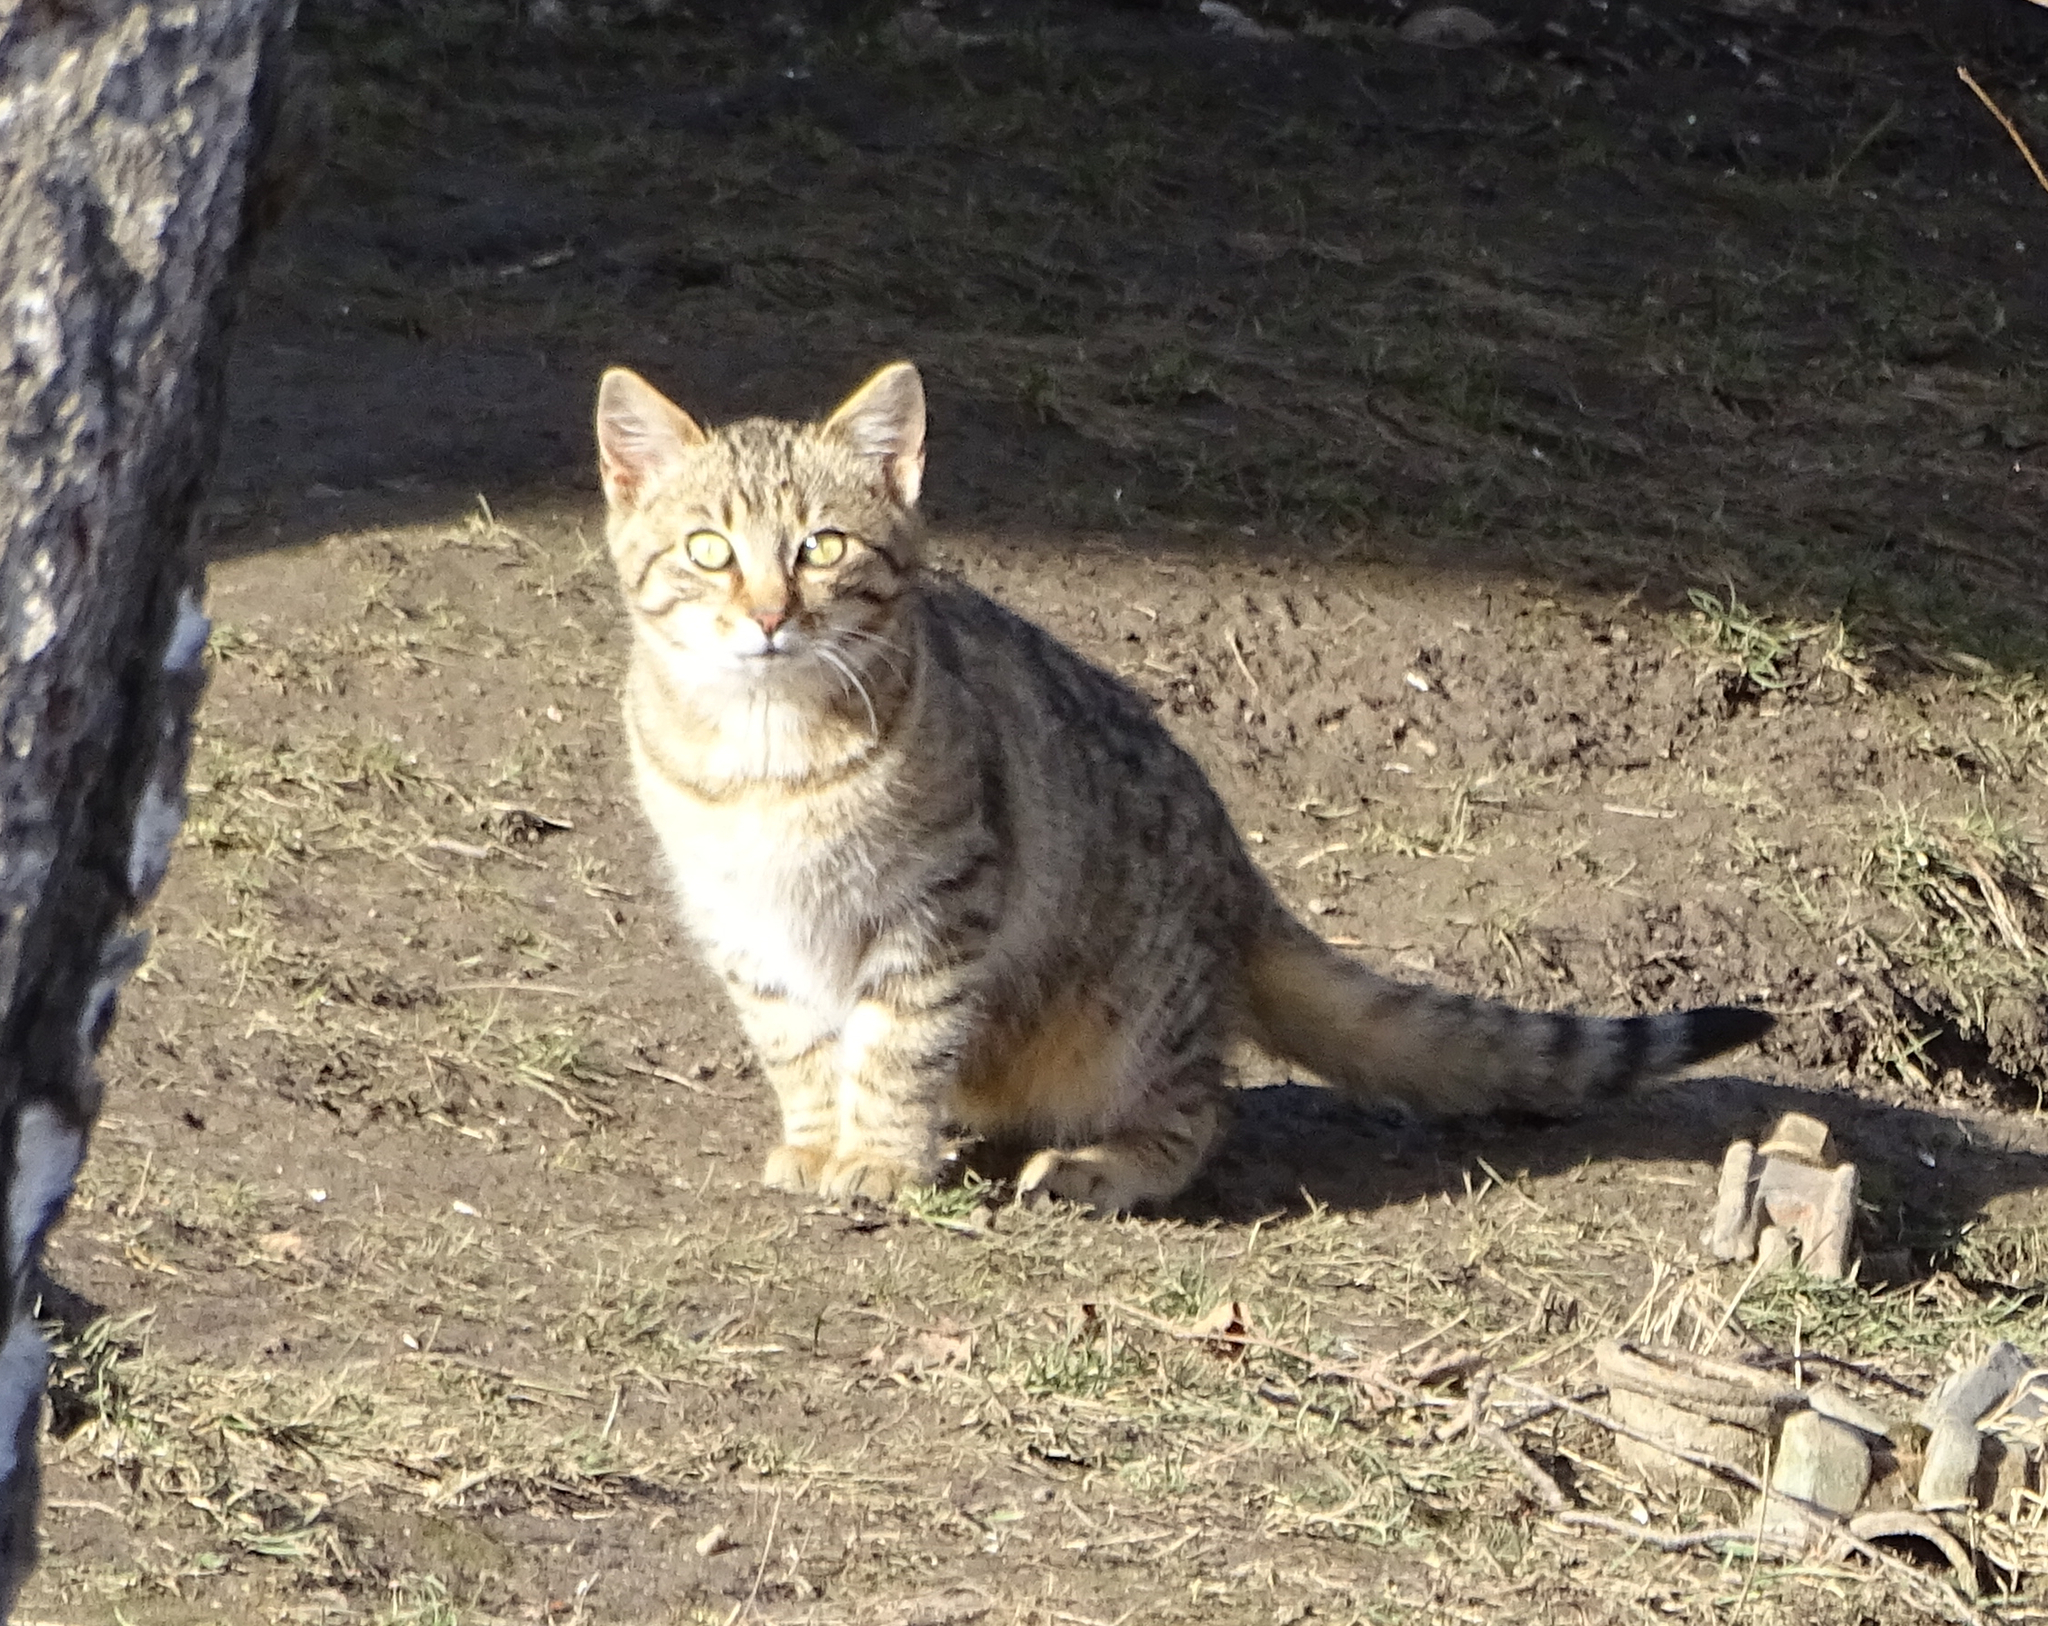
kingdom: Animalia
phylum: Chordata
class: Mammalia
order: Carnivora
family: Felidae
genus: Felis
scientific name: Felis catus
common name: Domestic cat
